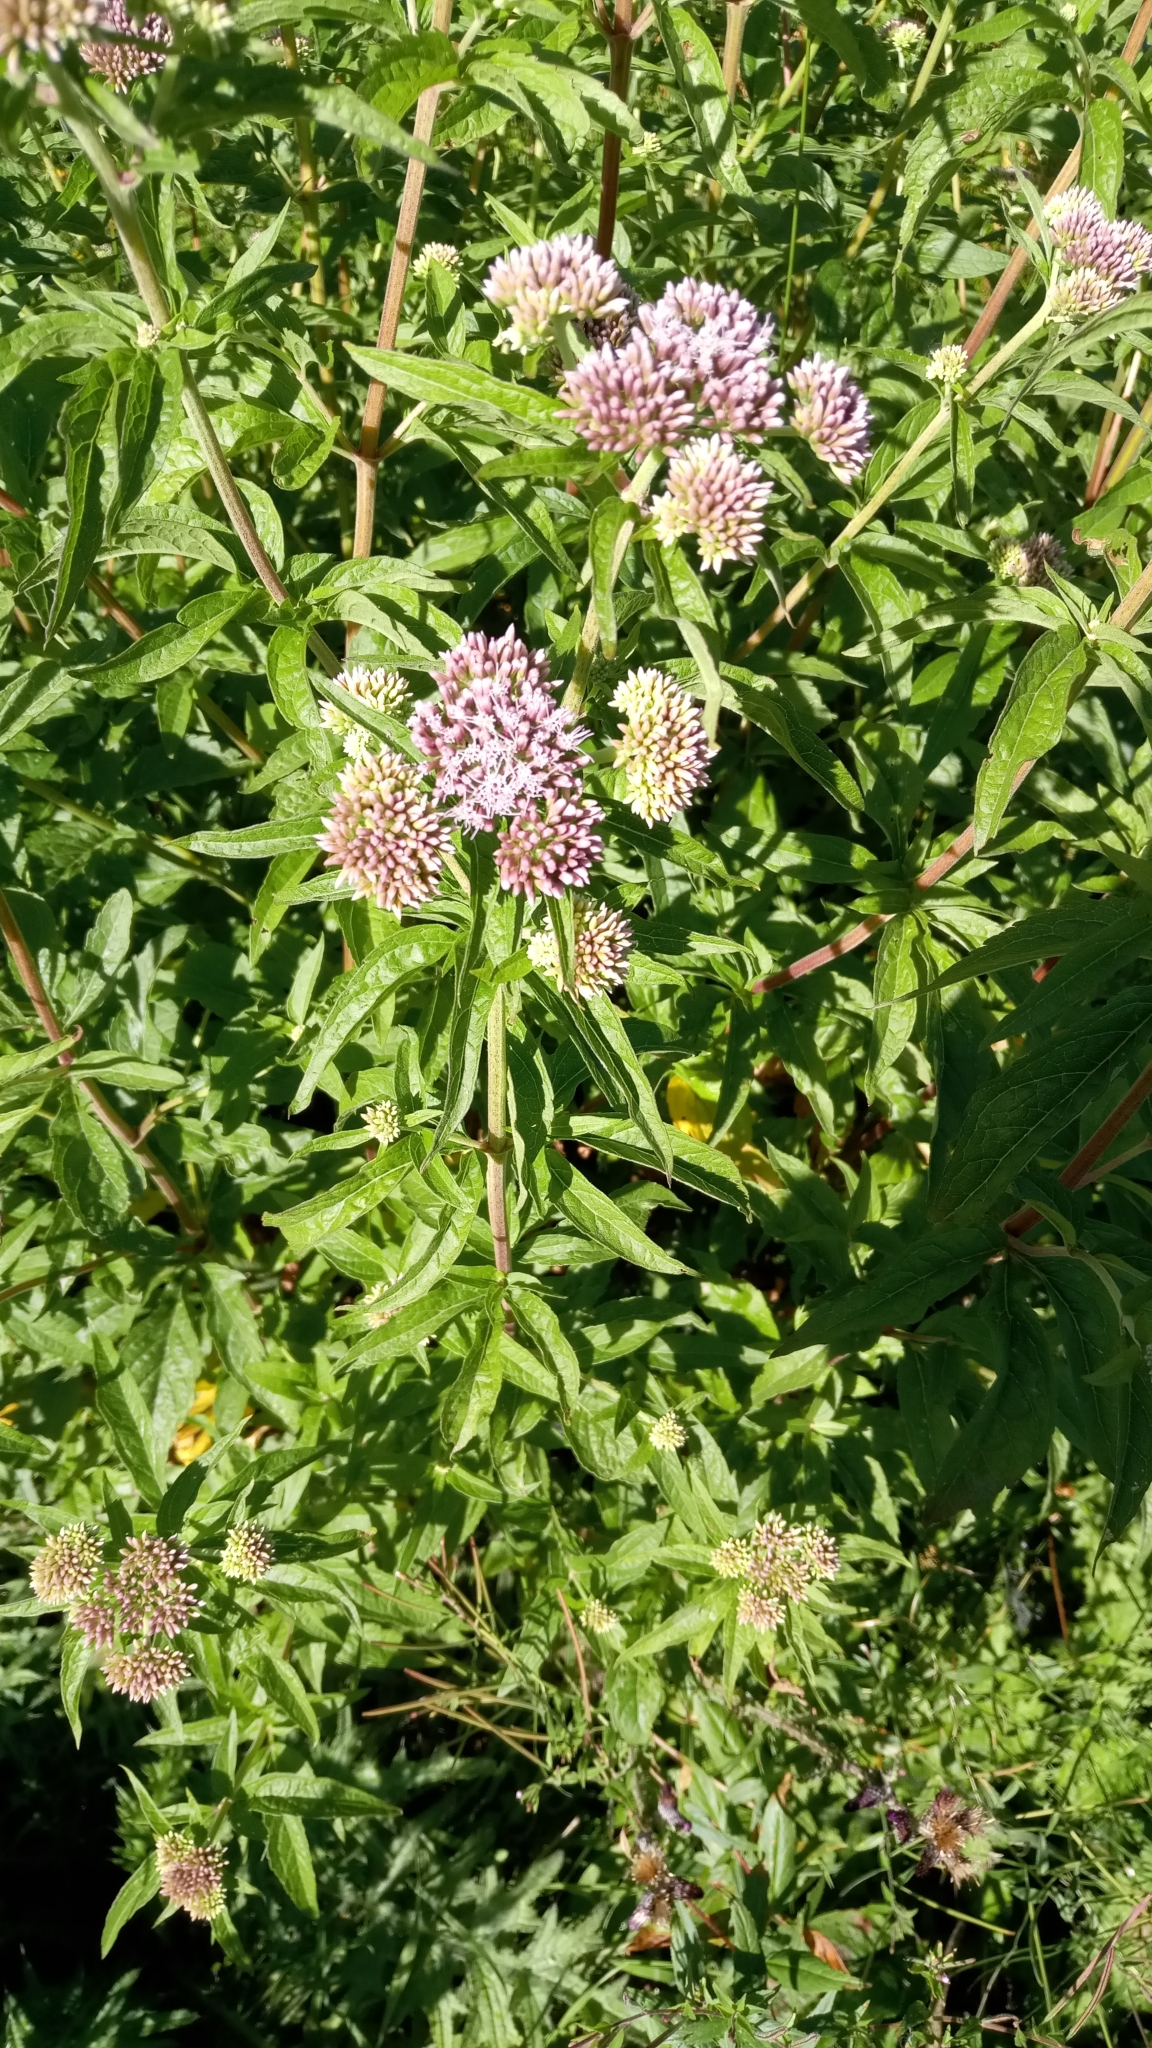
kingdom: Plantae
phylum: Tracheophyta
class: Magnoliopsida
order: Asterales
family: Asteraceae
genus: Eupatorium
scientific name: Eupatorium cannabinum
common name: Hemp-agrimony
